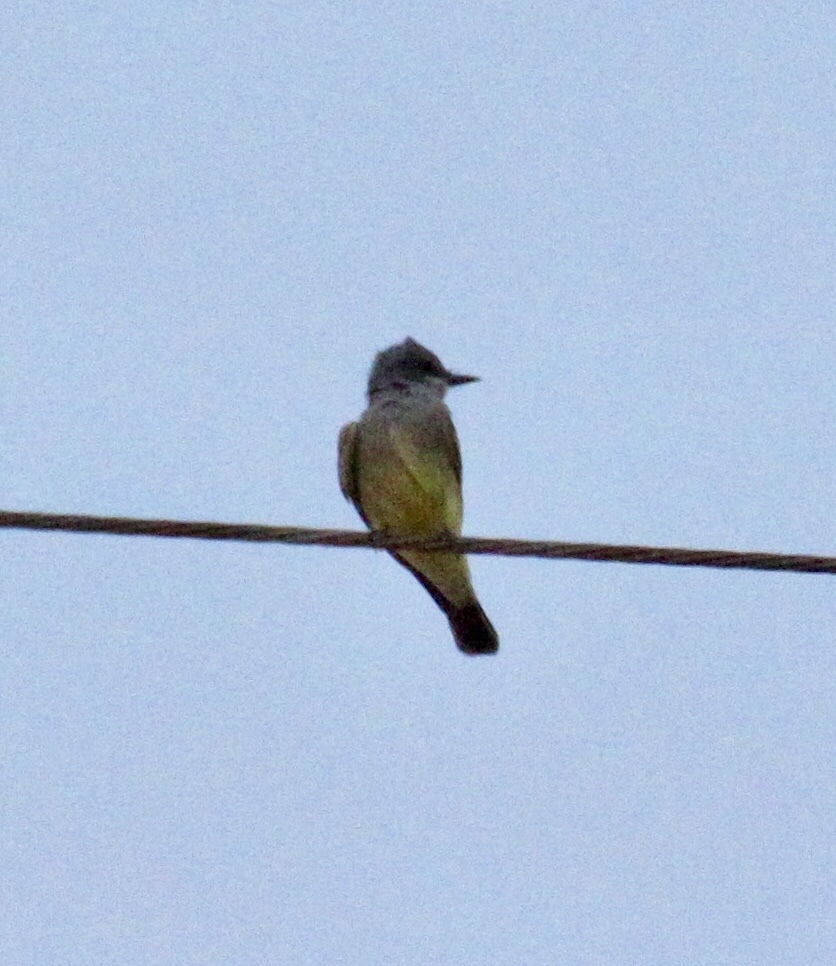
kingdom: Animalia
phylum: Chordata
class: Aves
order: Passeriformes
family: Tyrannidae
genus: Tyrannus
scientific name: Tyrannus vociferans
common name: Cassin's kingbird
